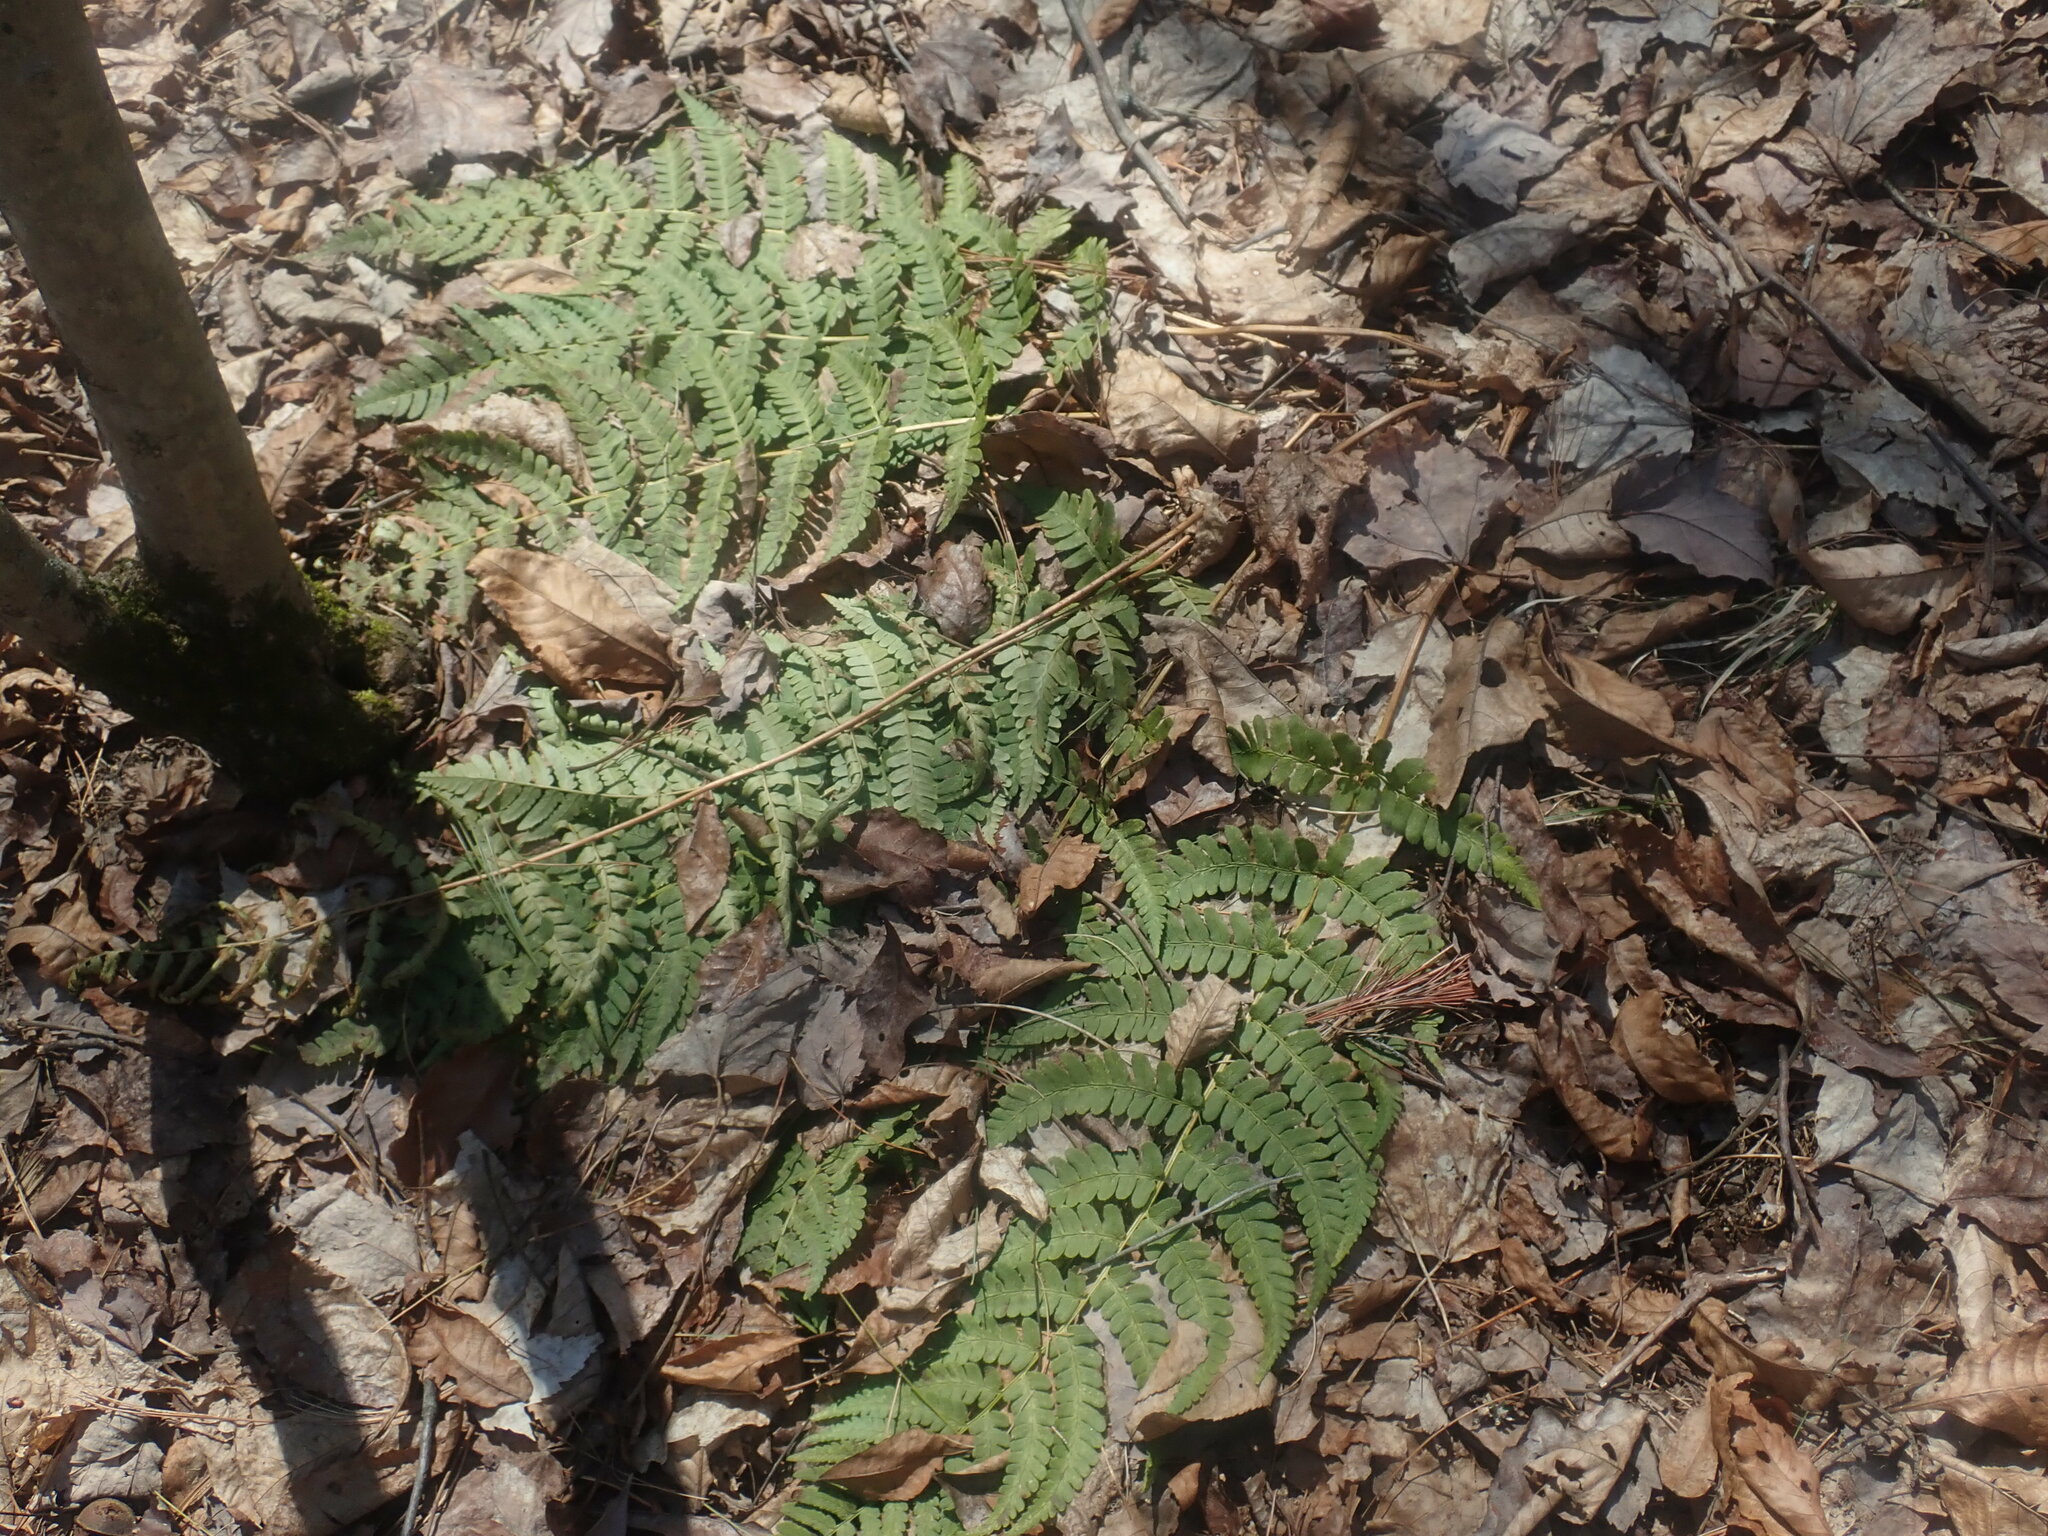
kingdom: Plantae
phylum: Tracheophyta
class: Polypodiopsida
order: Polypodiales
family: Dryopteridaceae
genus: Dryopteris
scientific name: Dryopteris marginalis
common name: Marginal wood fern
